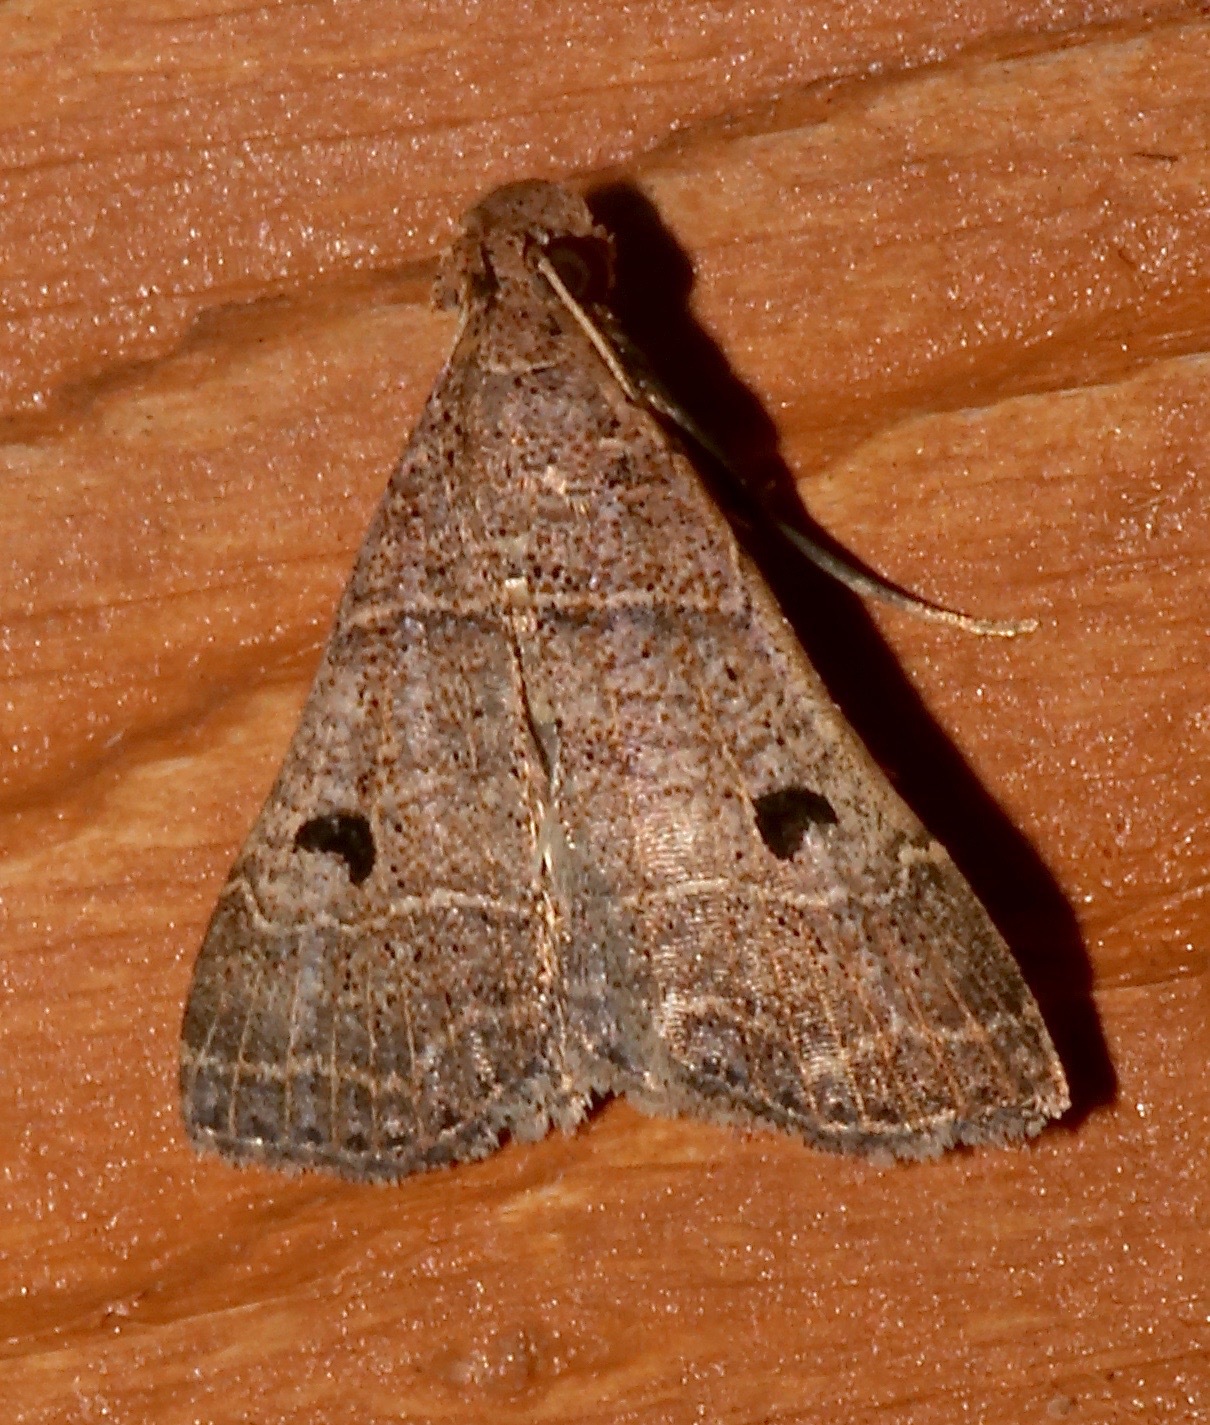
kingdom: Animalia
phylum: Arthropoda
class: Insecta
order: Lepidoptera
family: Erebidae
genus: Bleptina
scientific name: Bleptina flavivena
